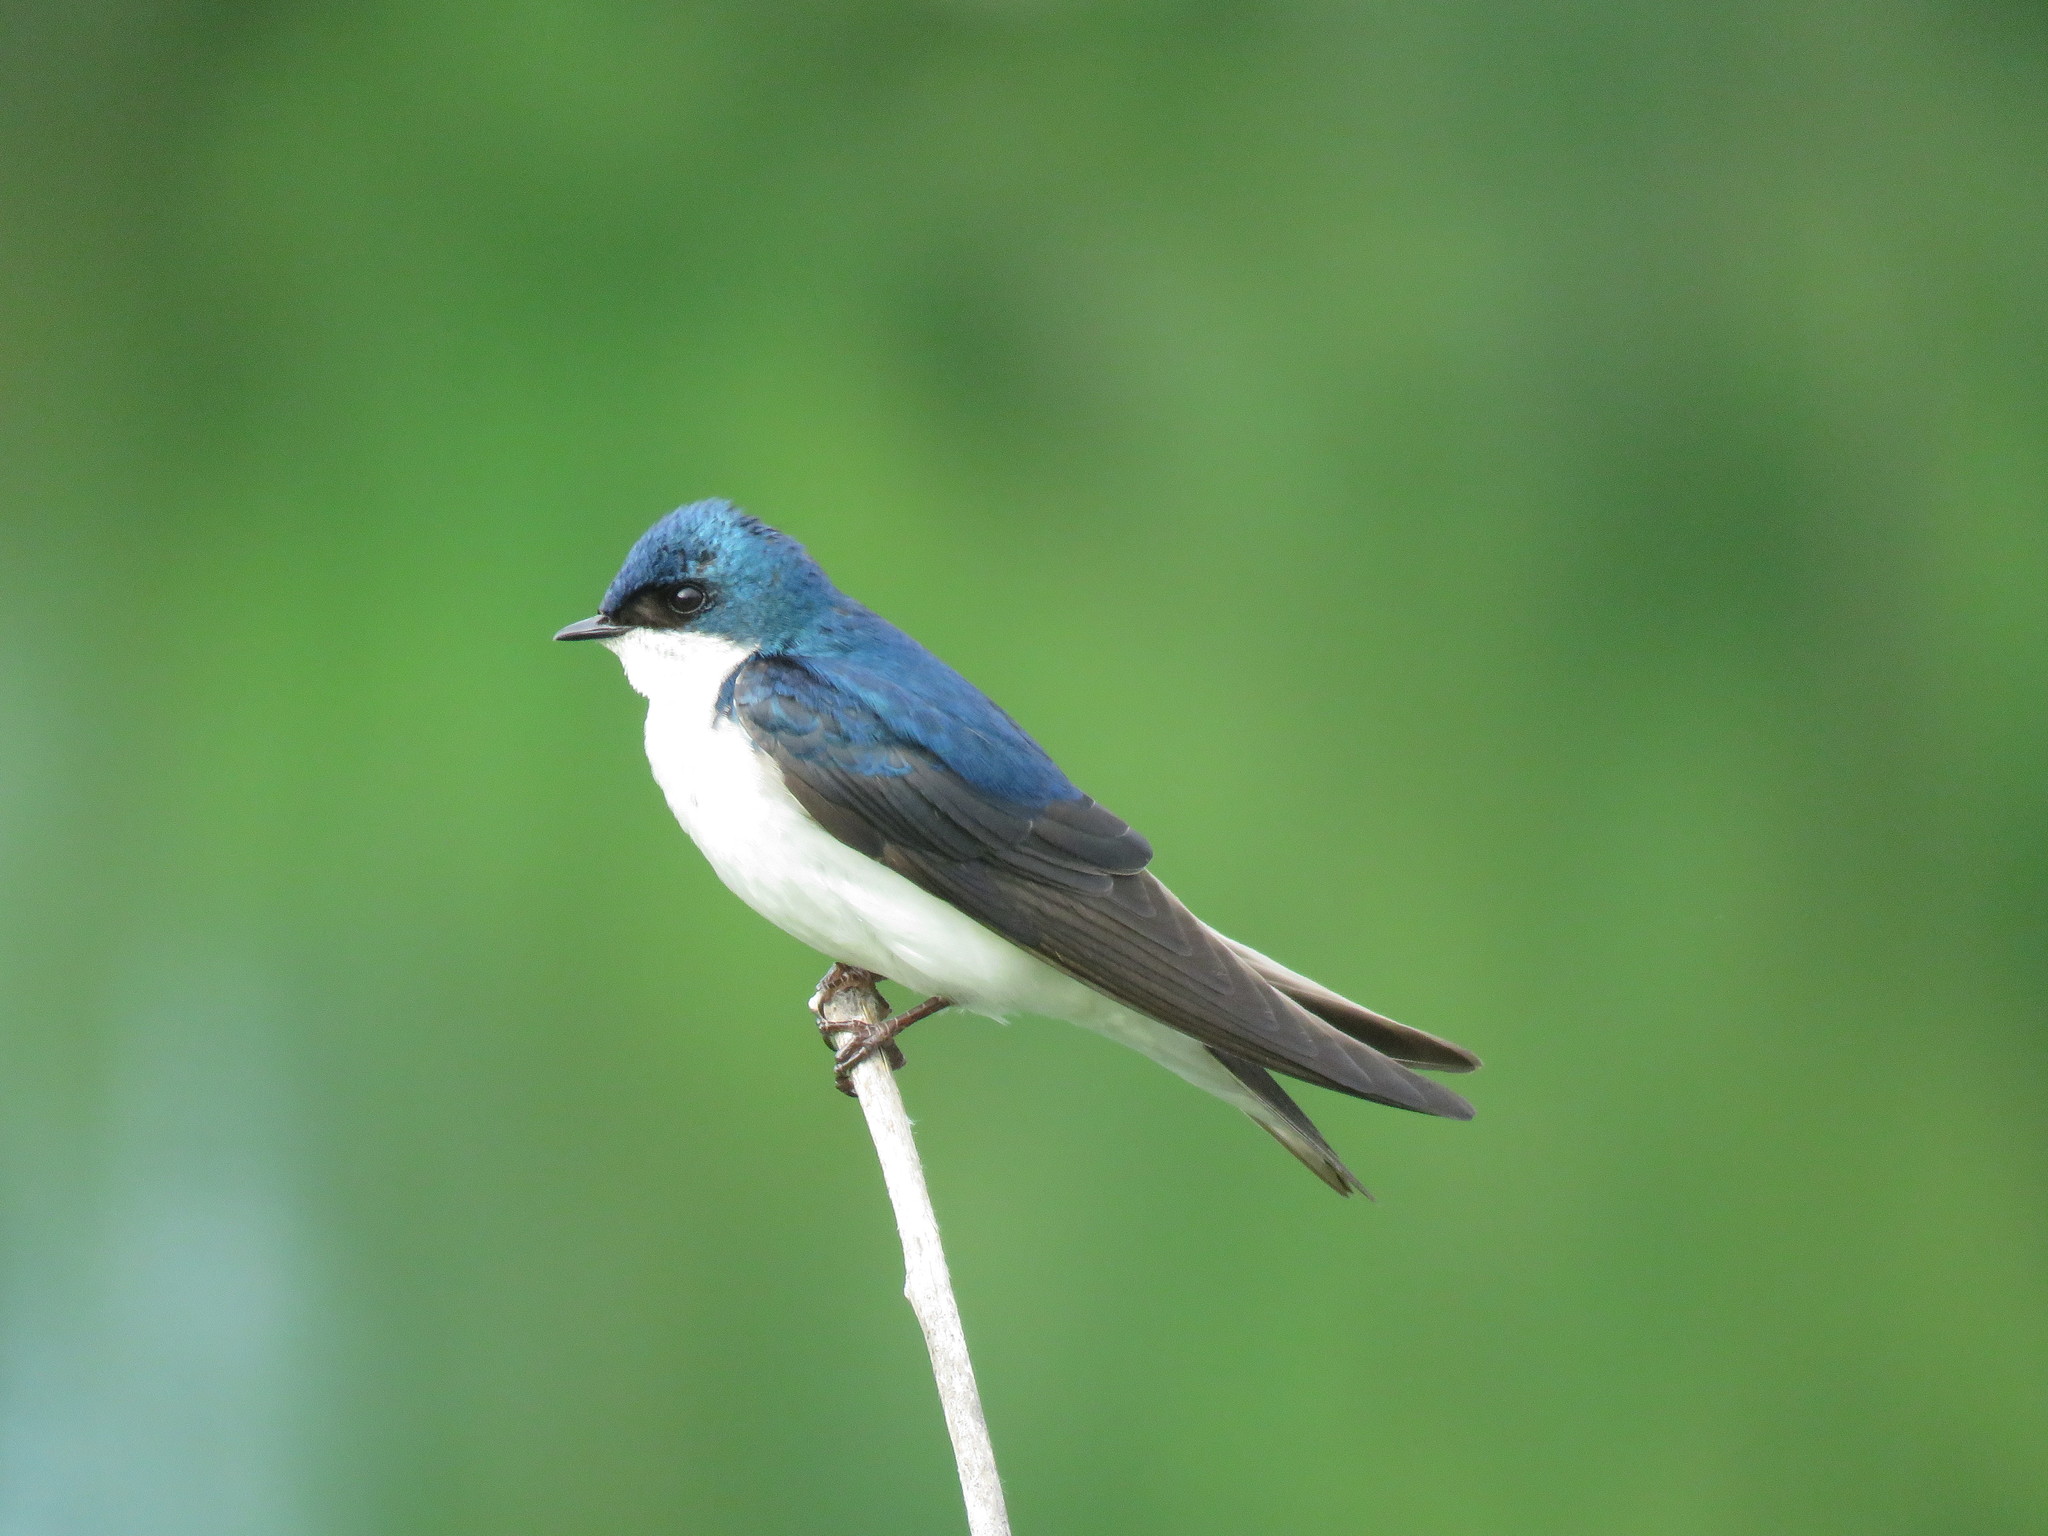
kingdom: Animalia
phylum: Chordata
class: Aves
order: Passeriformes
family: Hirundinidae
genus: Tachycineta
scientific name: Tachycineta bicolor
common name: Tree swallow
